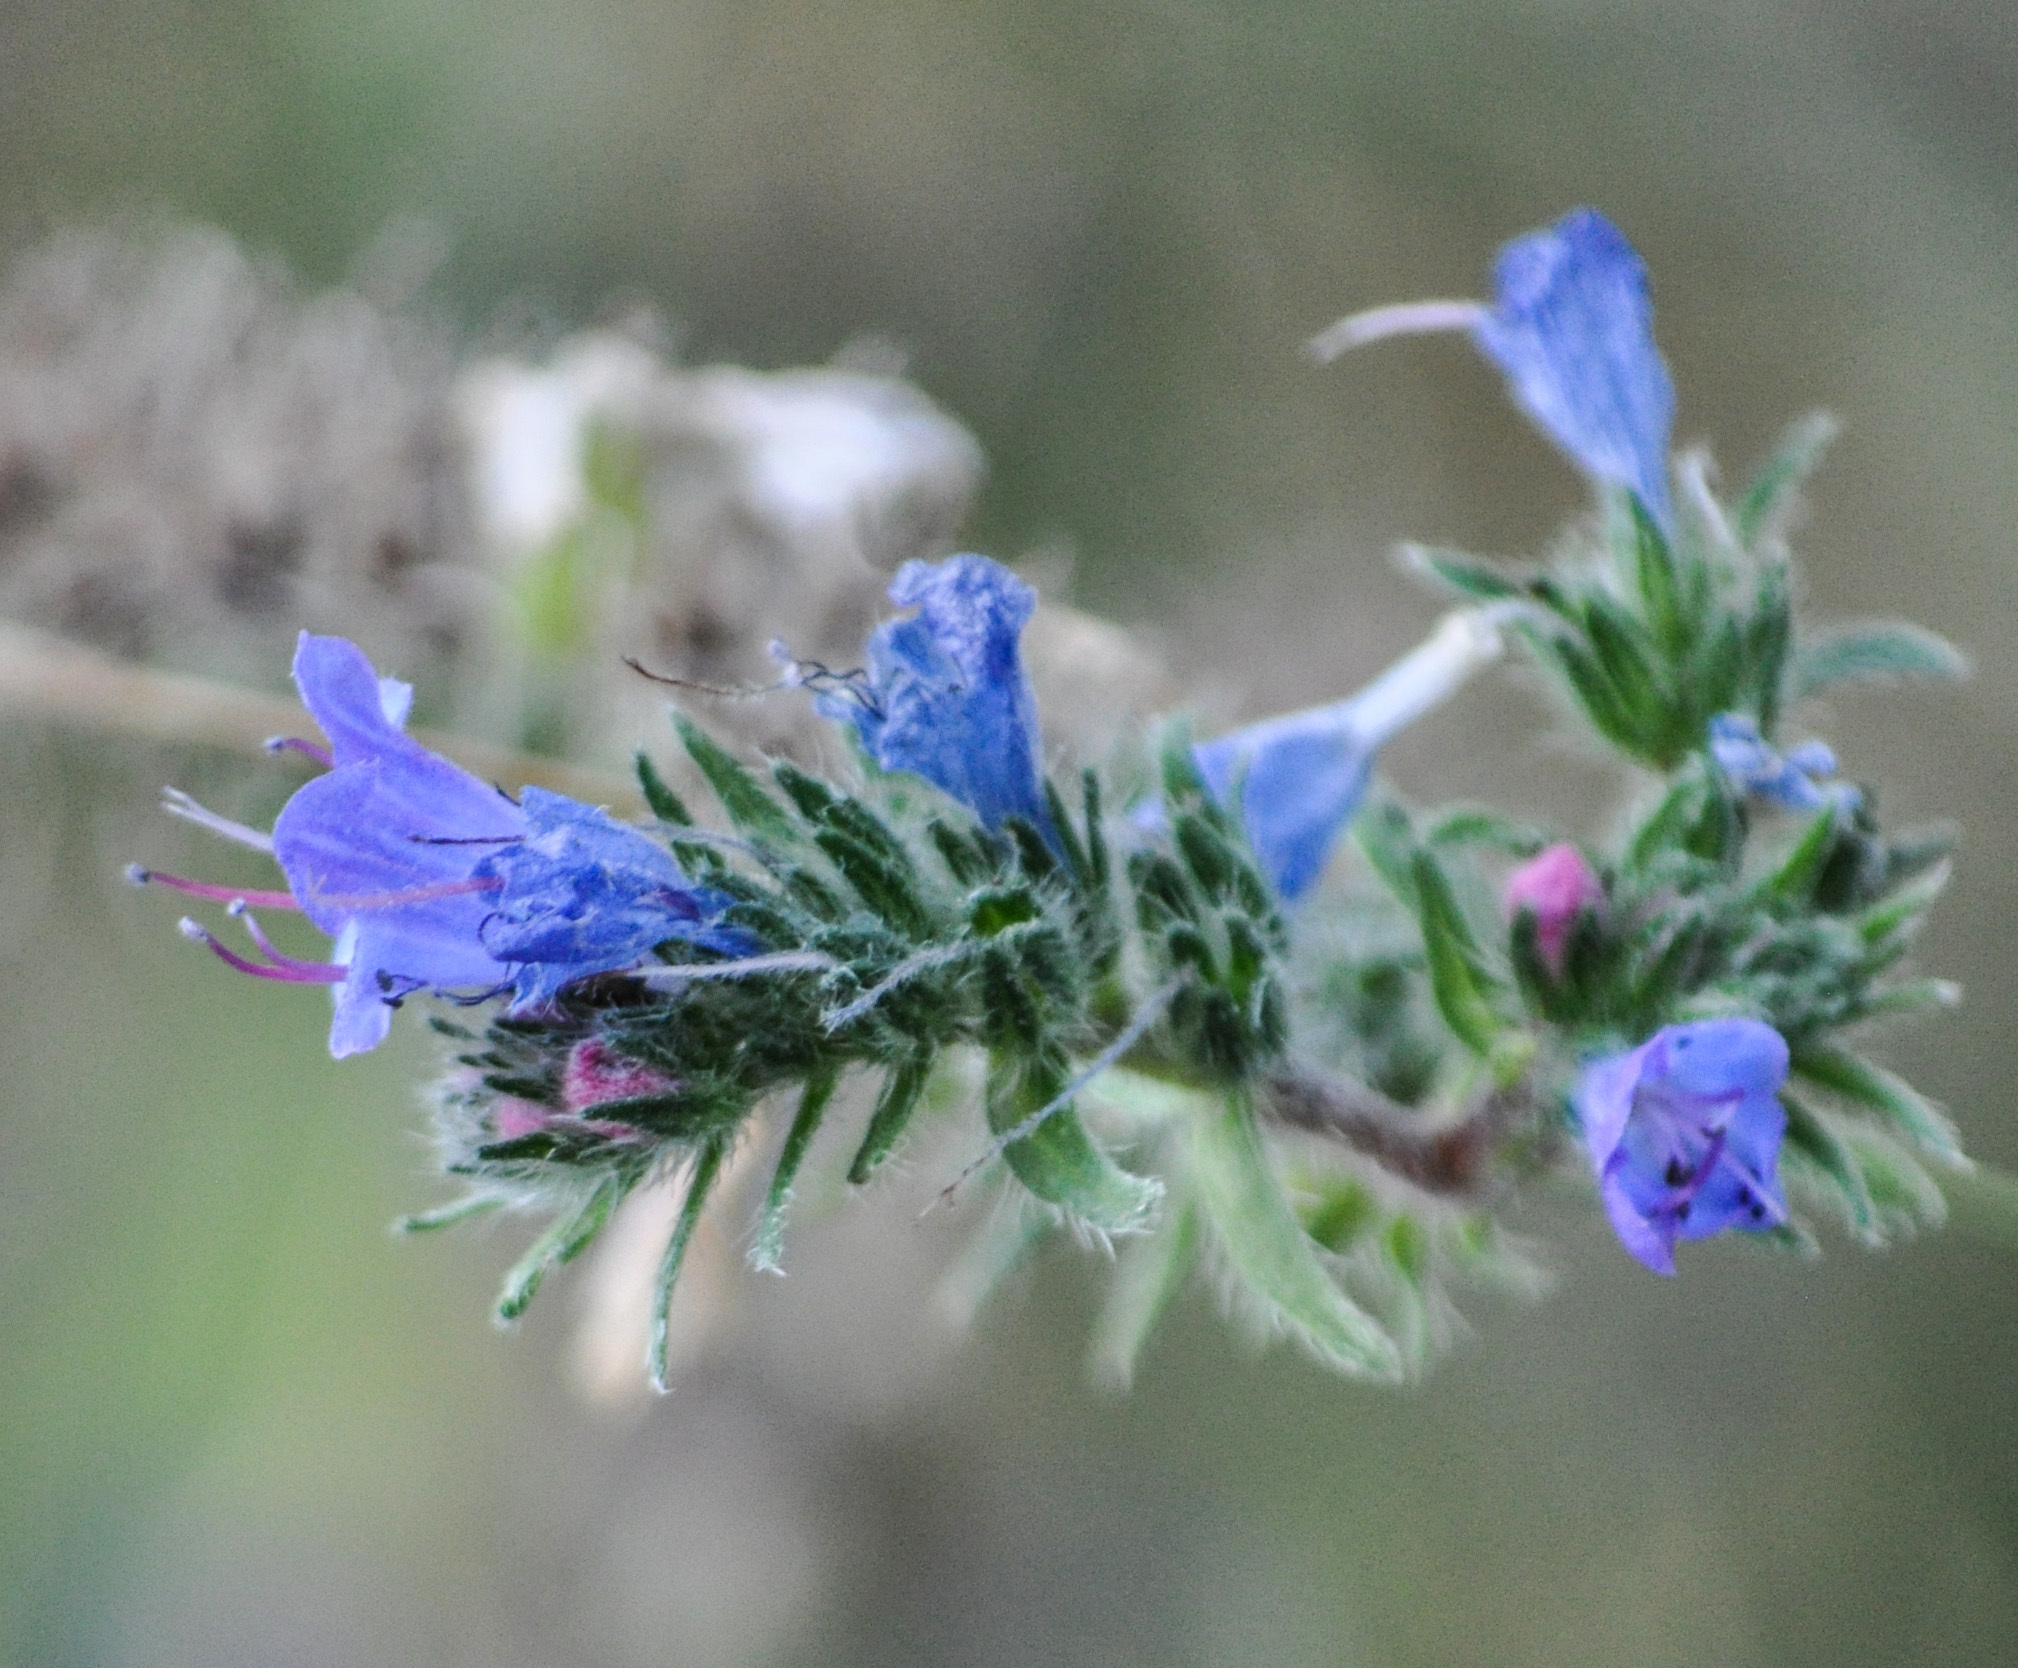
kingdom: Plantae
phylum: Tracheophyta
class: Magnoliopsida
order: Boraginales
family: Boraginaceae
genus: Echium
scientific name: Echium vulgare
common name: Common viper's bugloss
